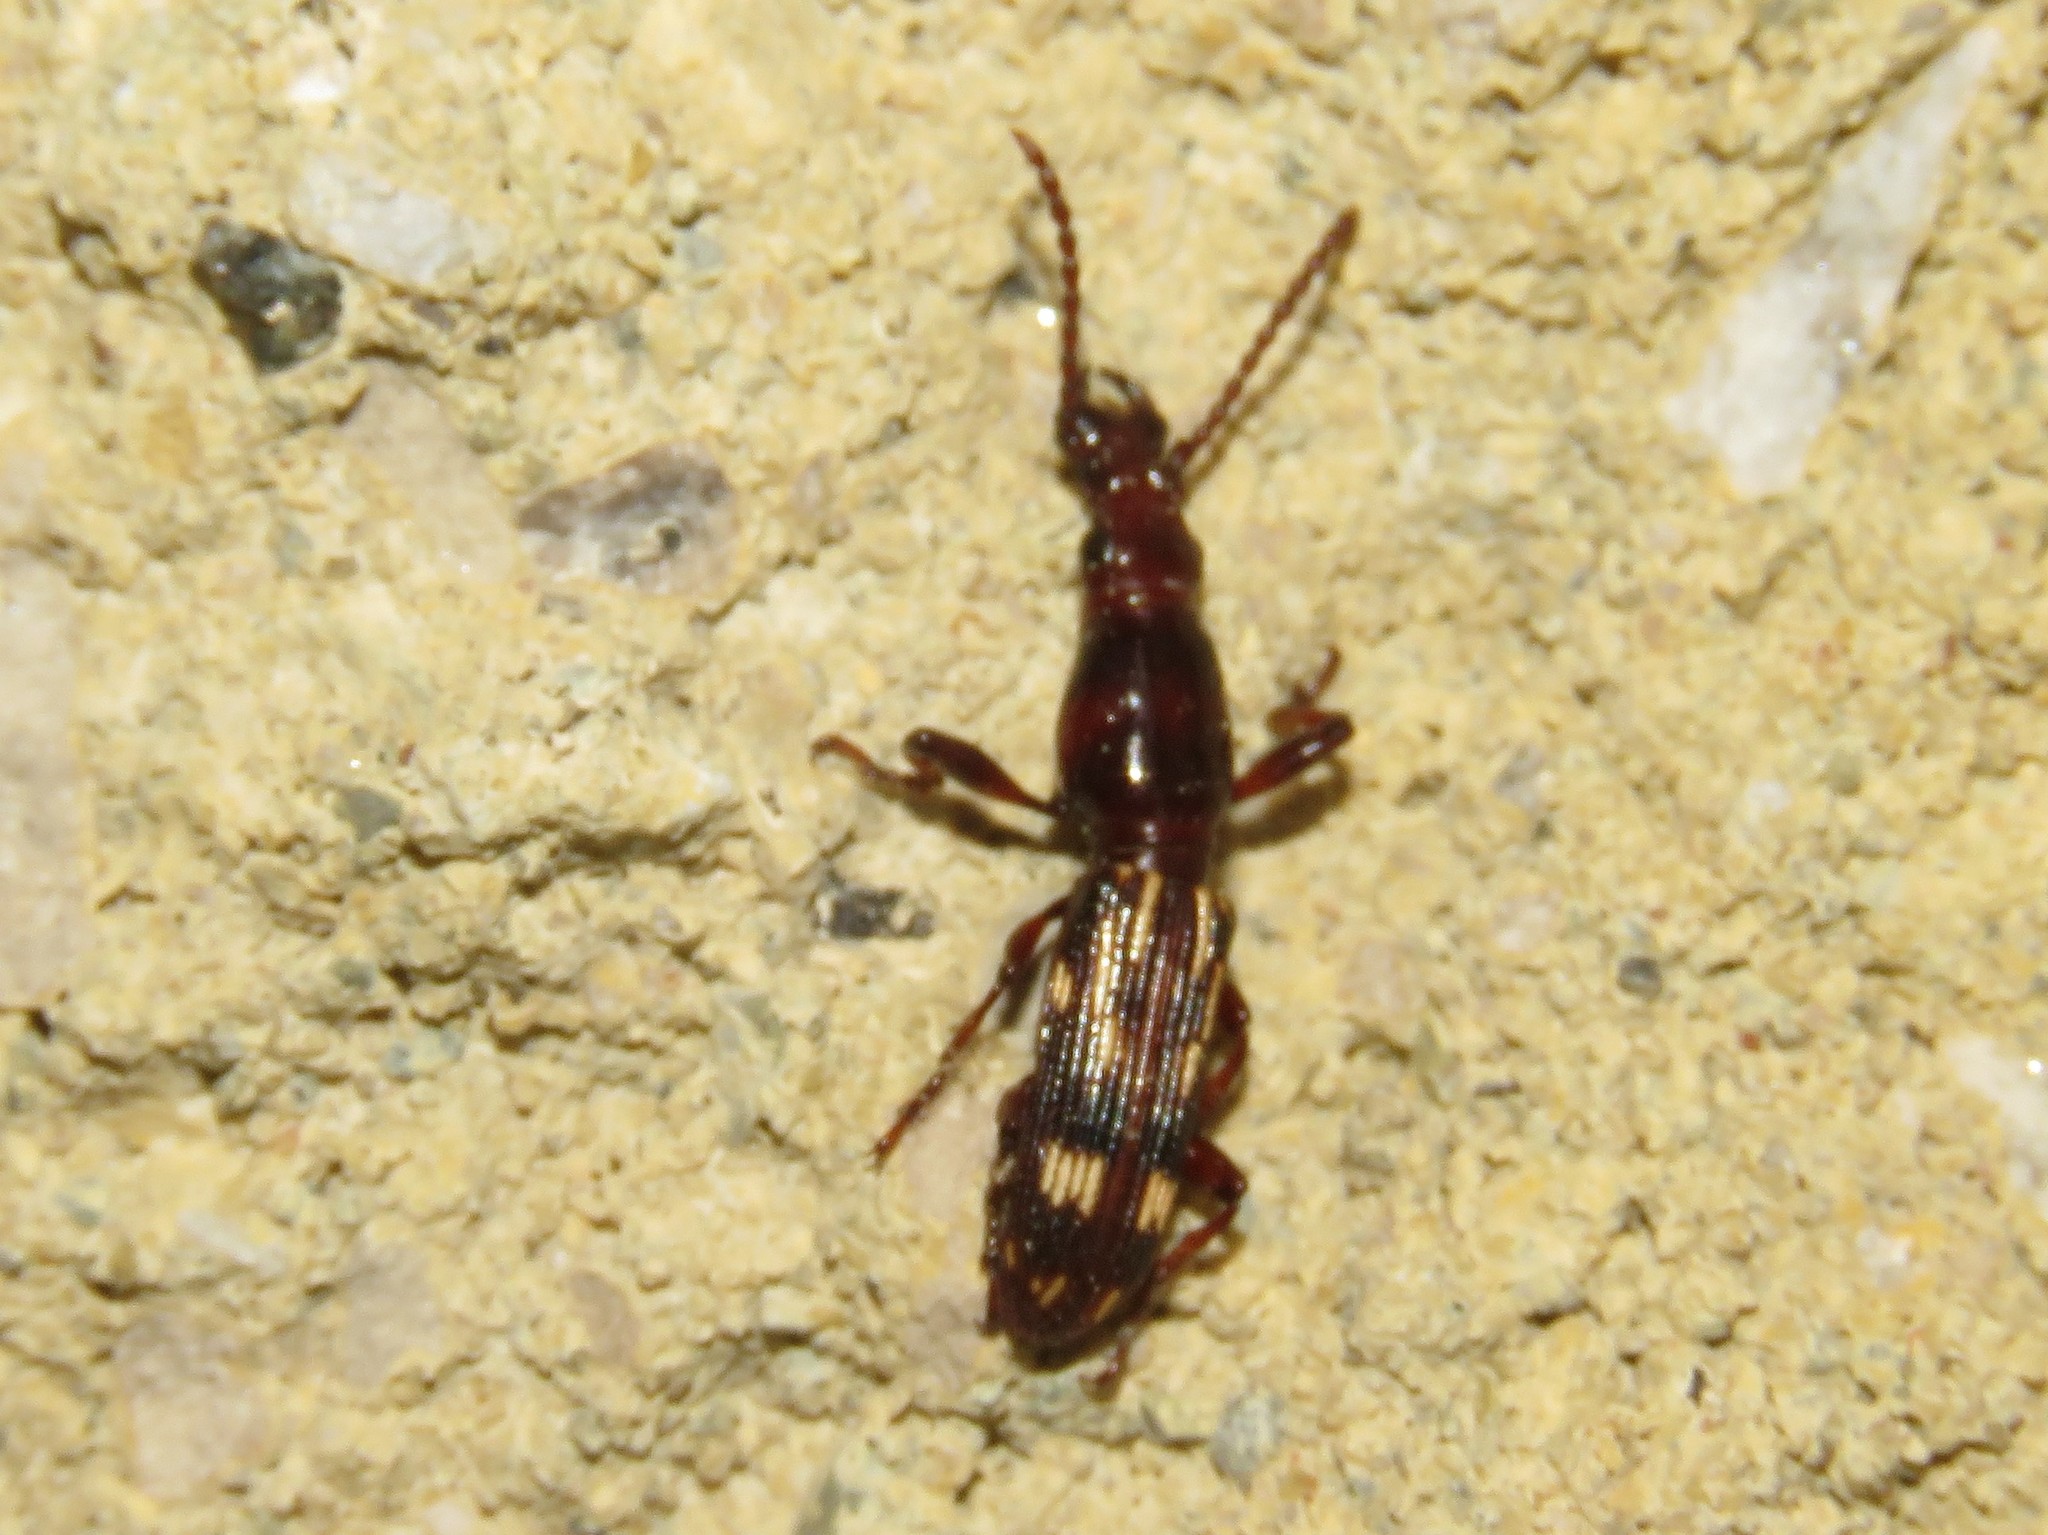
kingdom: Animalia
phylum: Arthropoda
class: Insecta
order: Coleoptera
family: Brentidae
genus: Arrenodes
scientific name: Arrenodes minutus
